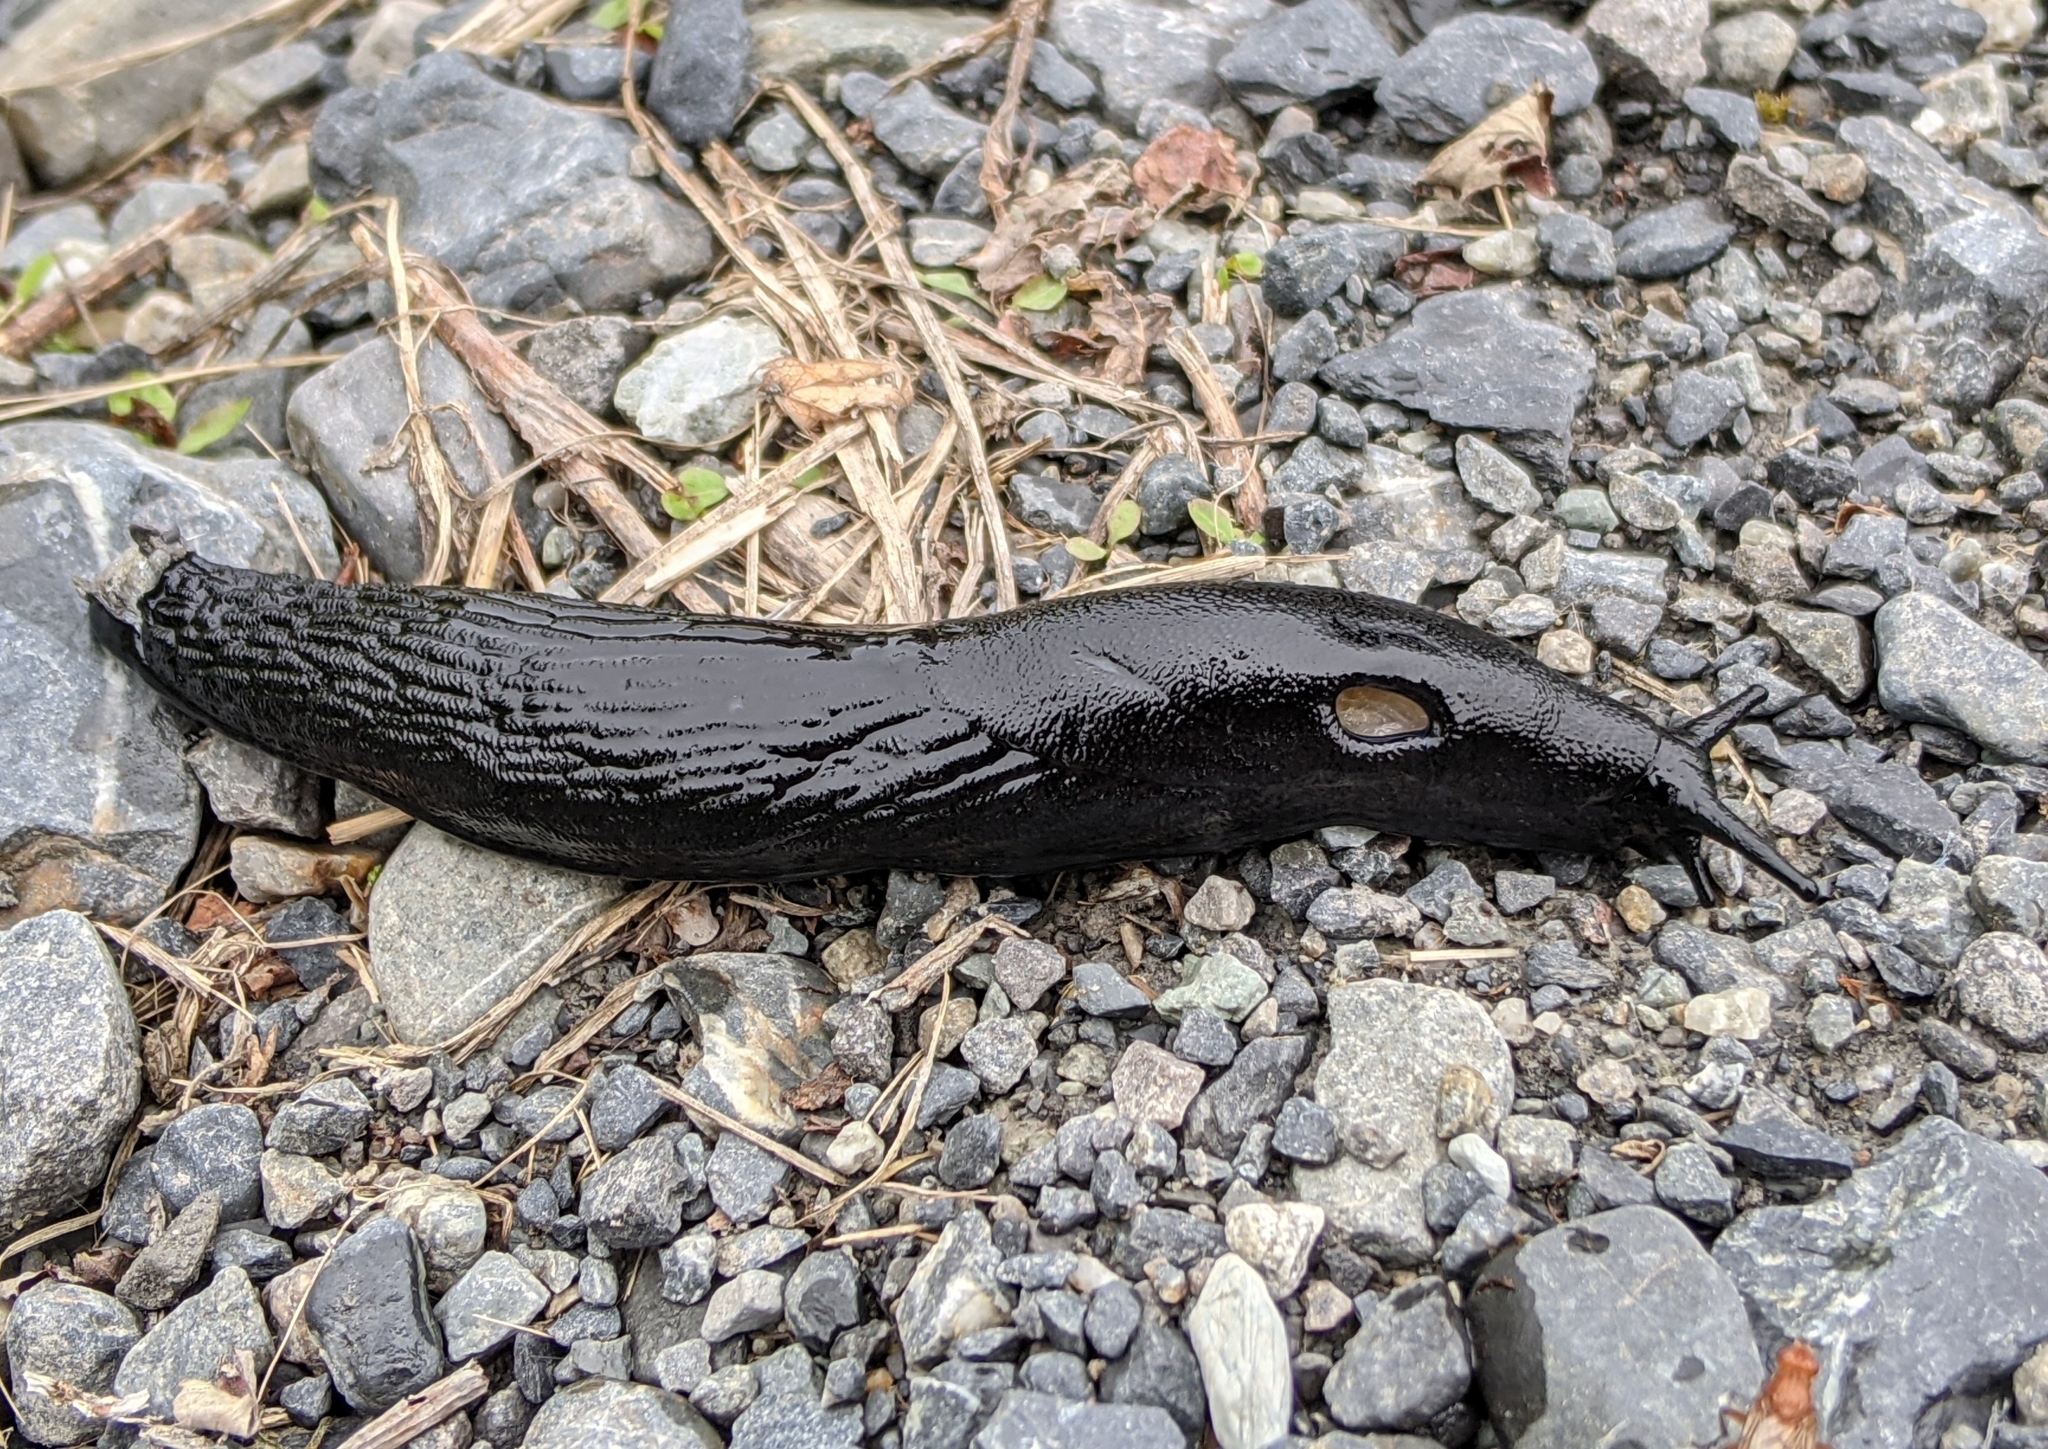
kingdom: Animalia
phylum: Mollusca
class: Gastropoda
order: Stylommatophora
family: Arionidae
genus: Arion
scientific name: Arion
